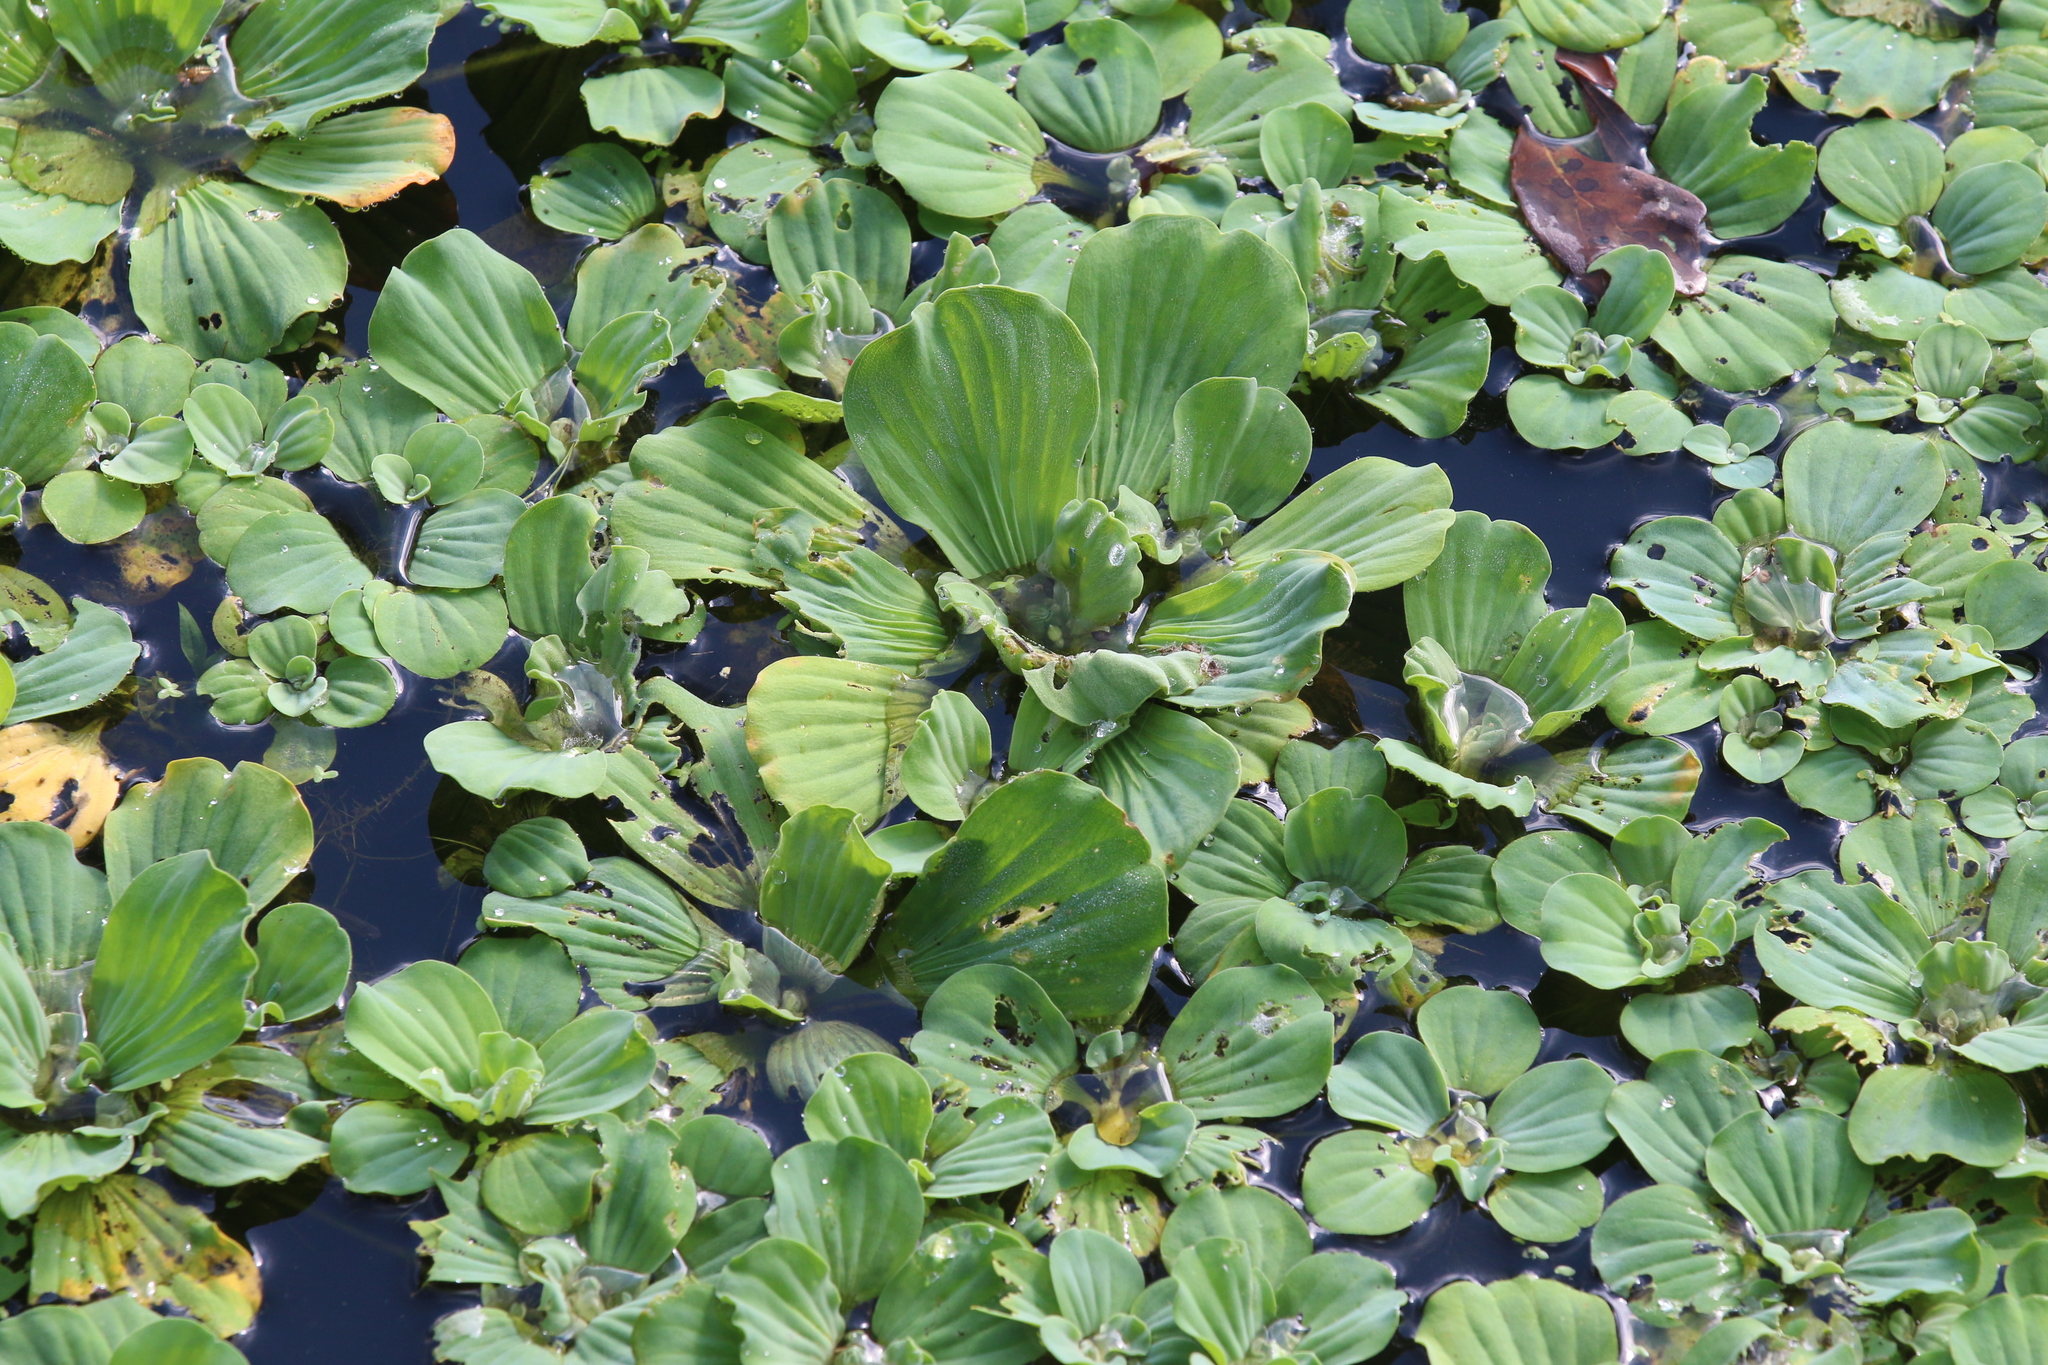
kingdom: Plantae
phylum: Tracheophyta
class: Liliopsida
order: Alismatales
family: Araceae
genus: Pistia
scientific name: Pistia stratiotes
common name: Water lettuce
